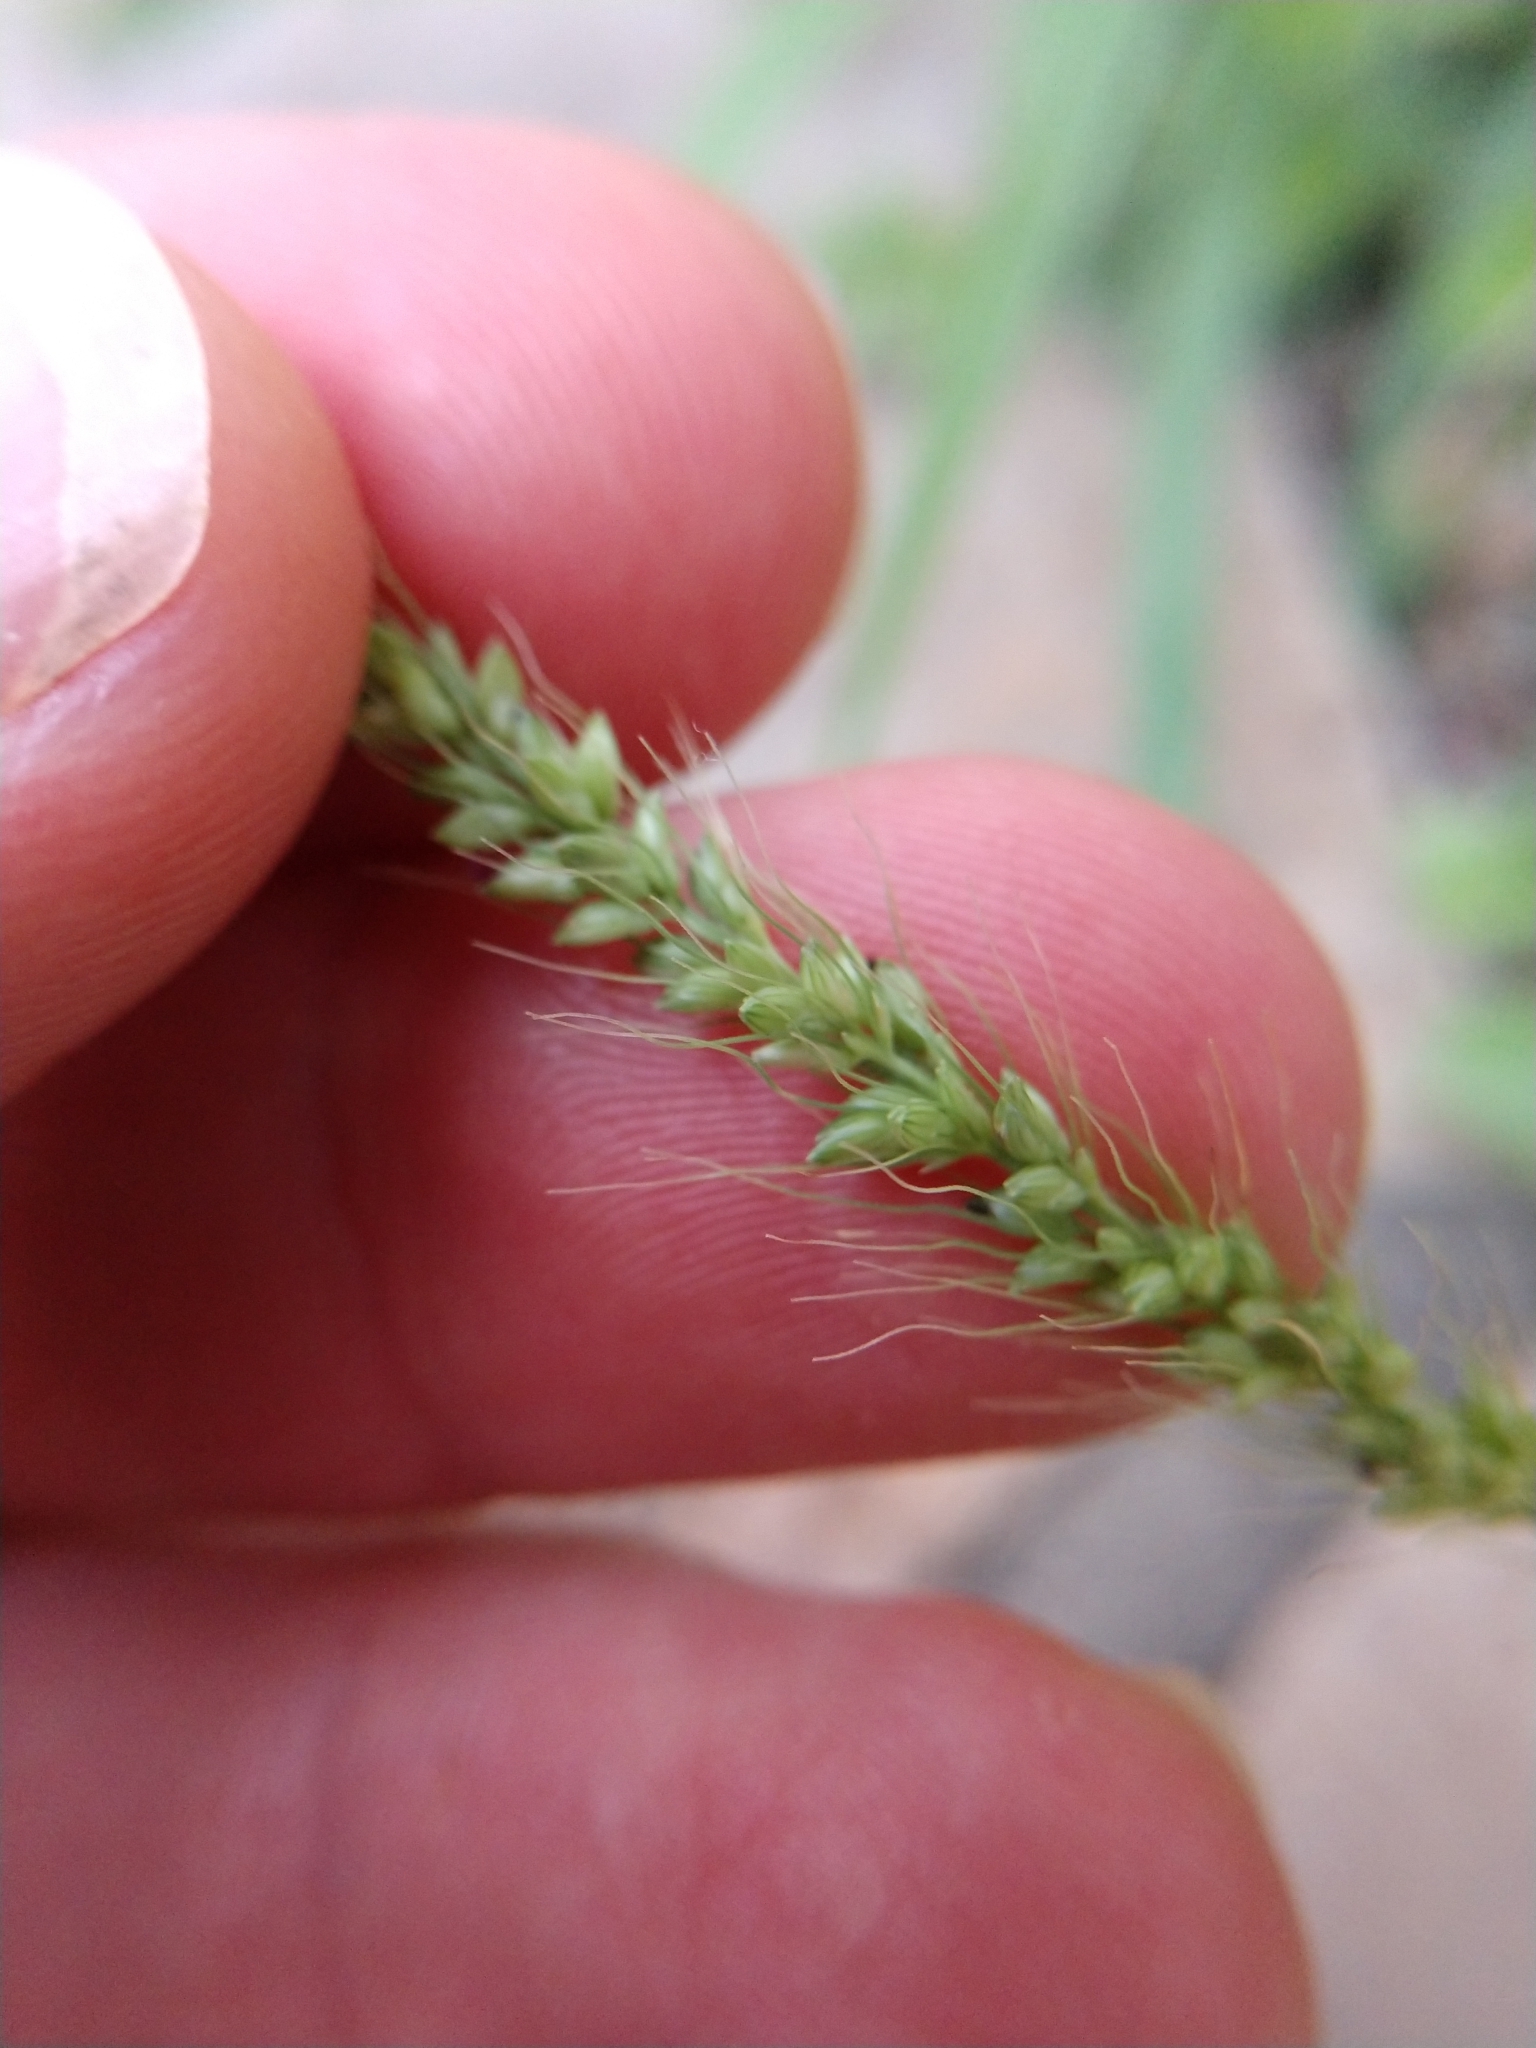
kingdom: Plantae
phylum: Tracheophyta
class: Liliopsida
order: Poales
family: Poaceae
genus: Setaria
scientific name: Setaria leucopila
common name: Plains bristle grass
